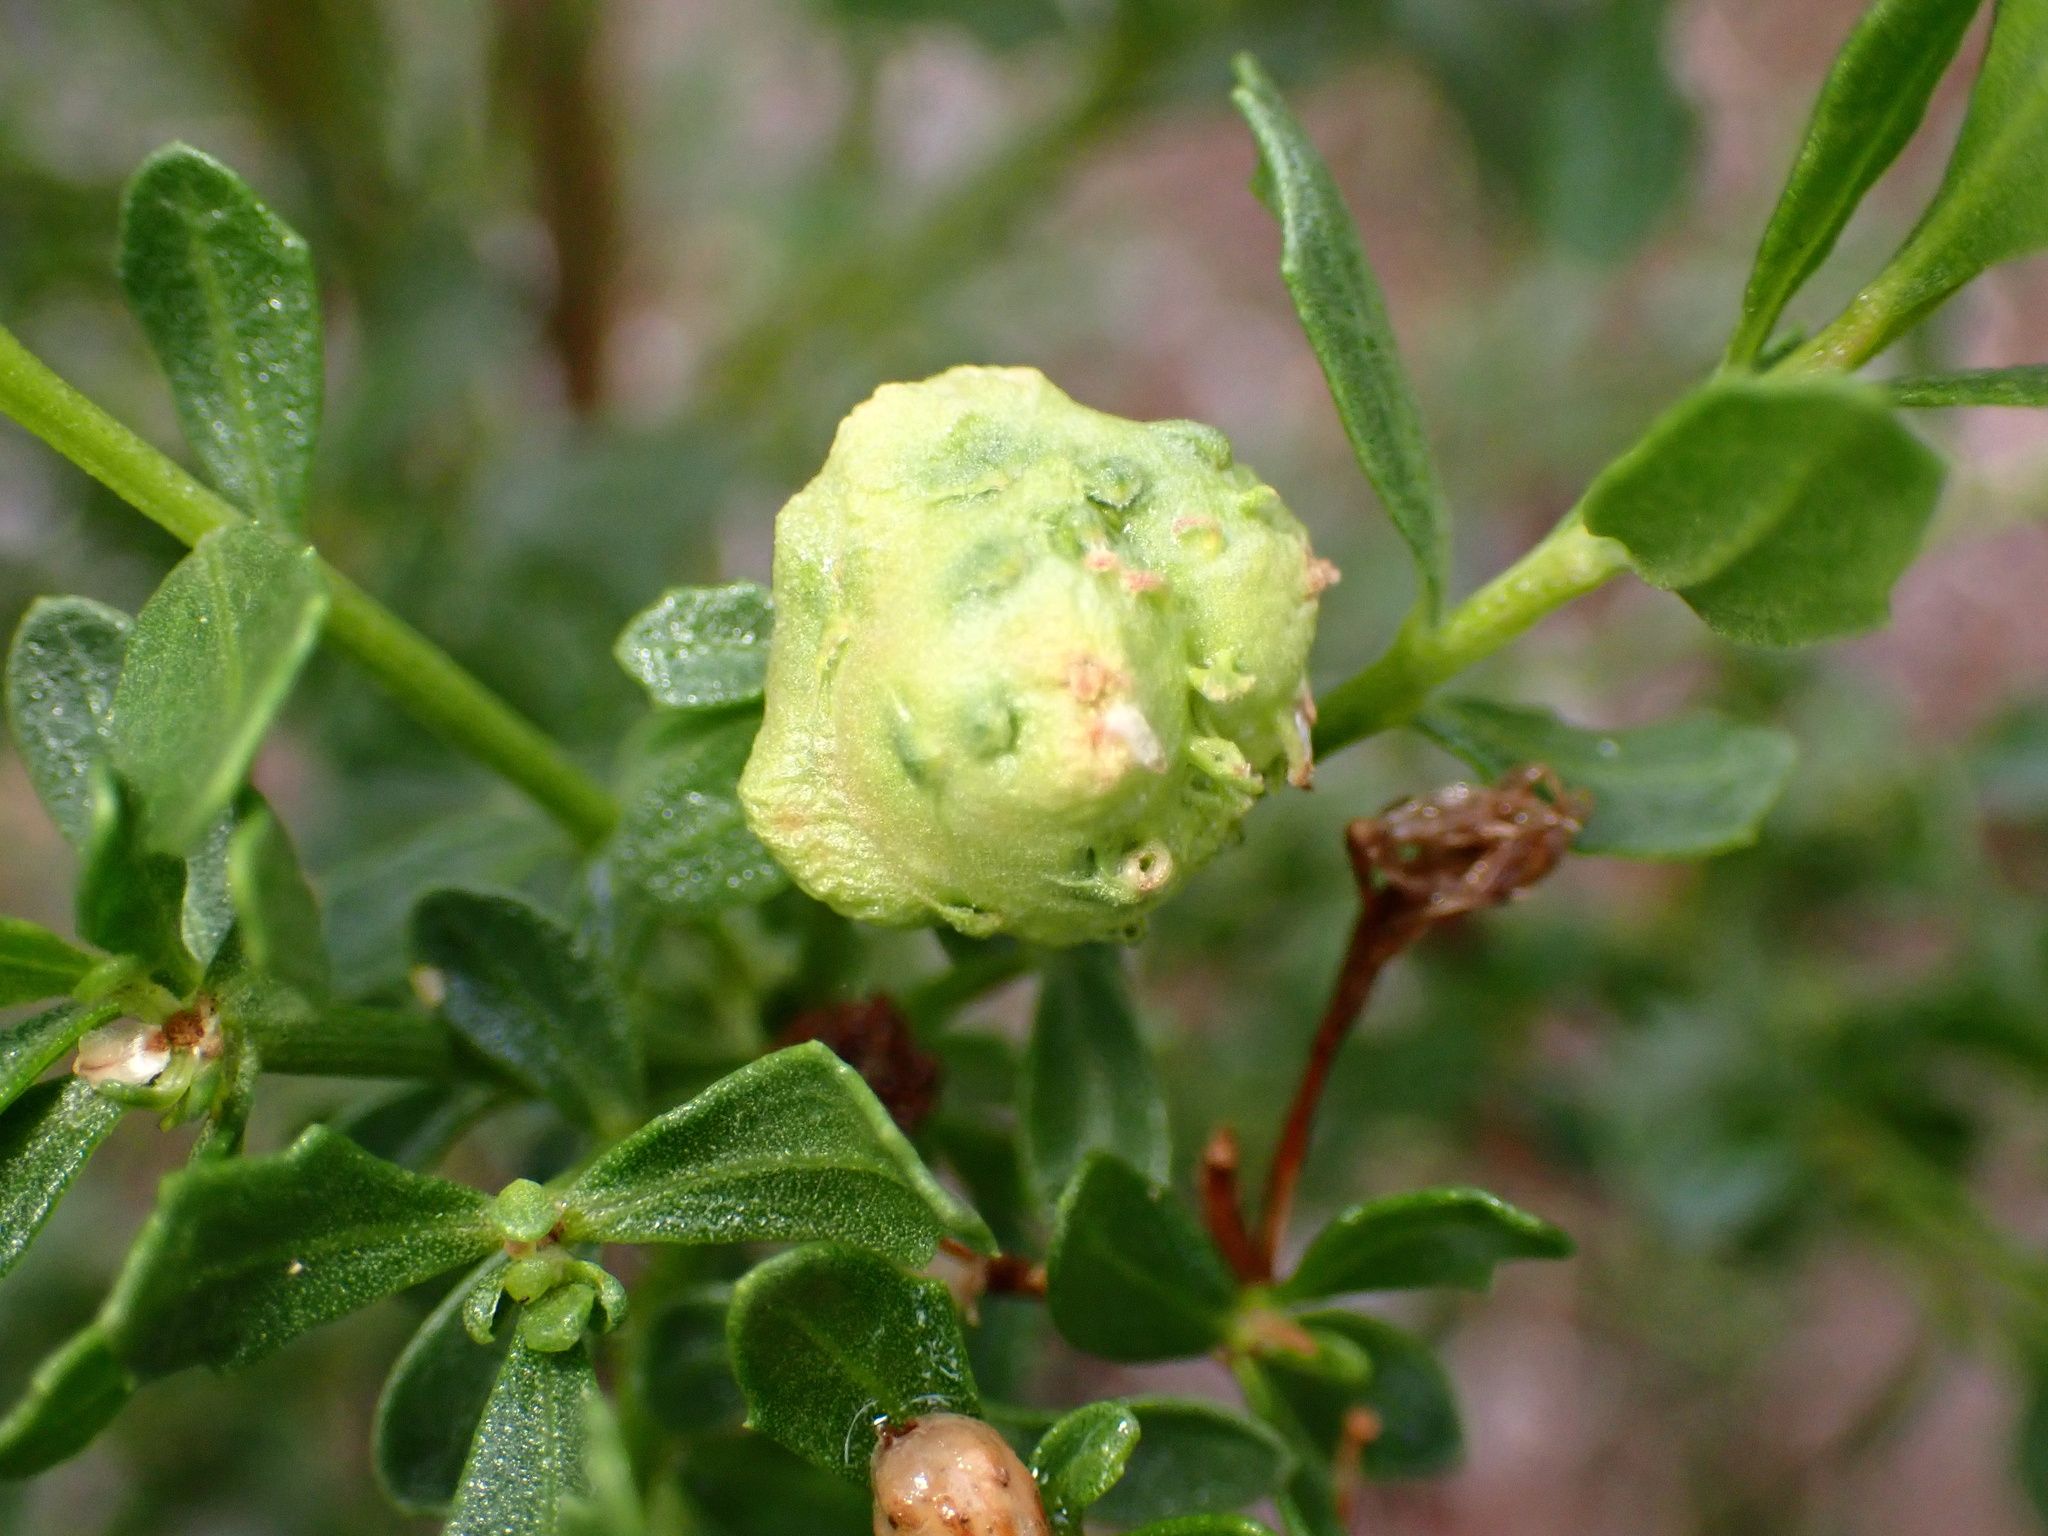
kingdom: Animalia
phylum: Arthropoda
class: Insecta
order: Diptera
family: Cecidomyiidae
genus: Rhopalomyia
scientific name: Rhopalomyia californica
